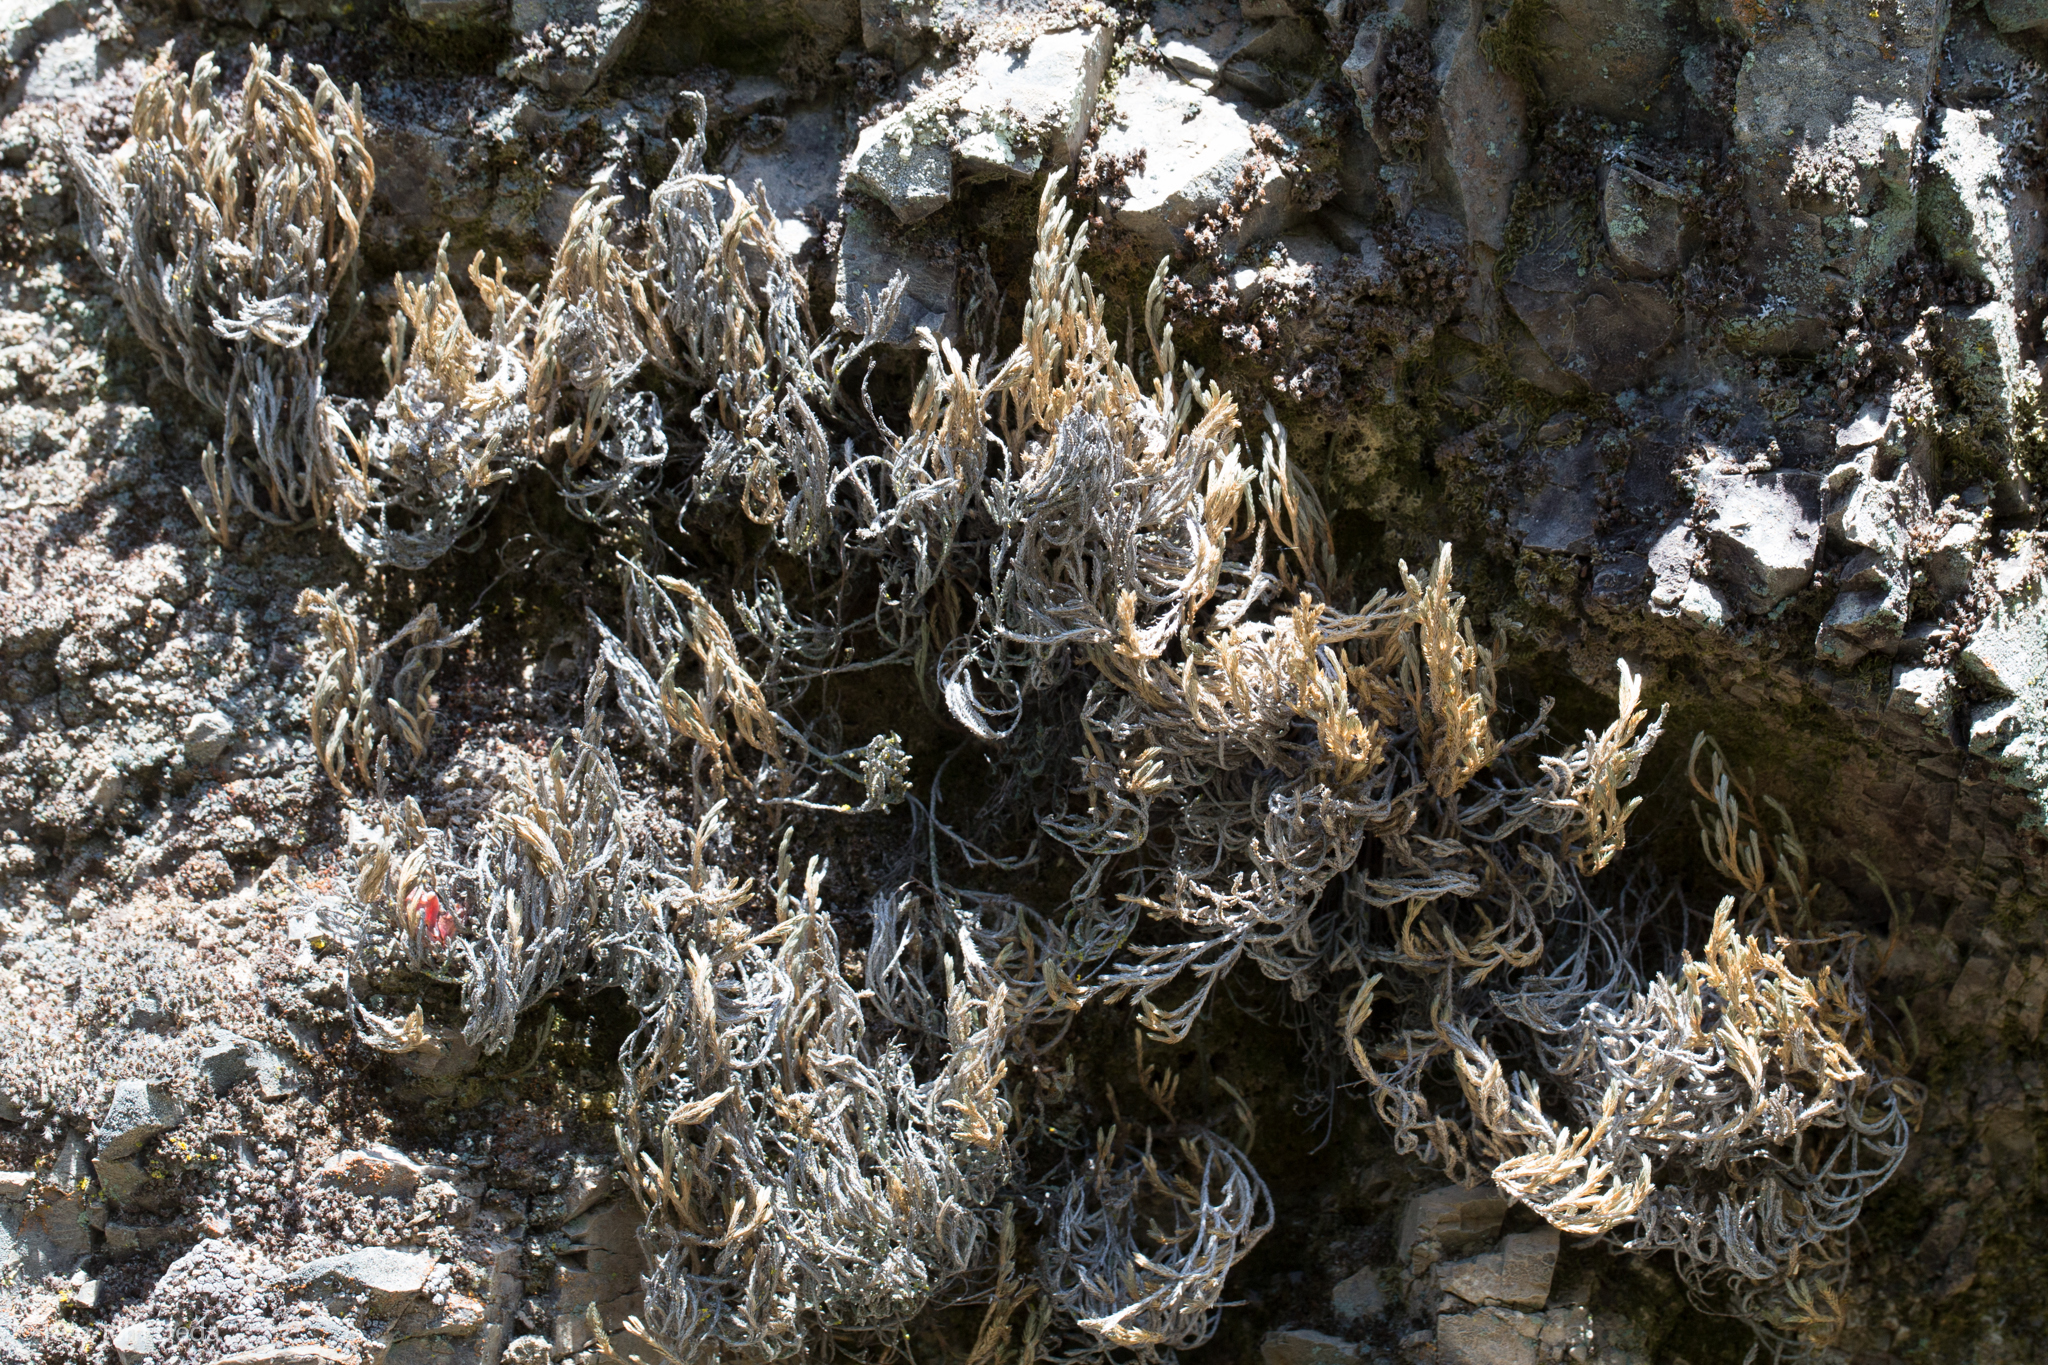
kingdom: Plantae
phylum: Tracheophyta
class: Lycopodiopsida
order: Selaginellales
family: Selaginellaceae
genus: Selaginella
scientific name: Selaginella bigelovii
